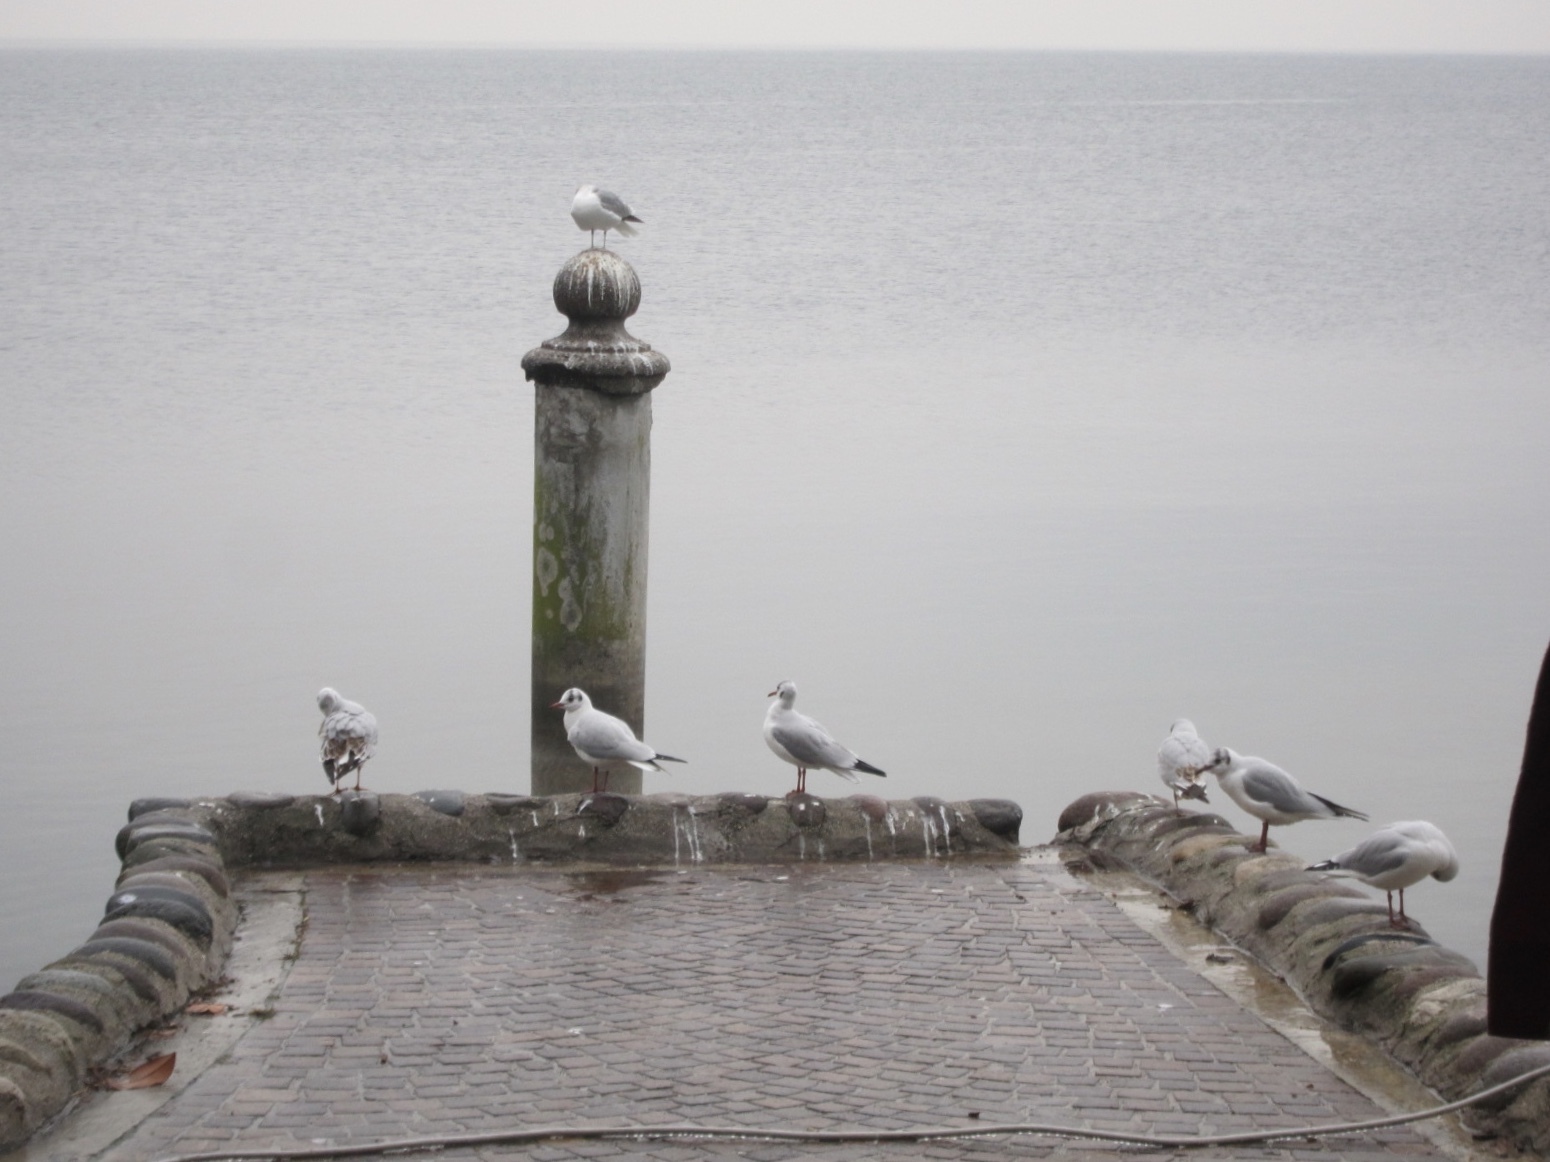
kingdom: Animalia
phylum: Chordata
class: Aves
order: Charadriiformes
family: Laridae
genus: Chroicocephalus
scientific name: Chroicocephalus ridibundus
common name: Black-headed gull
